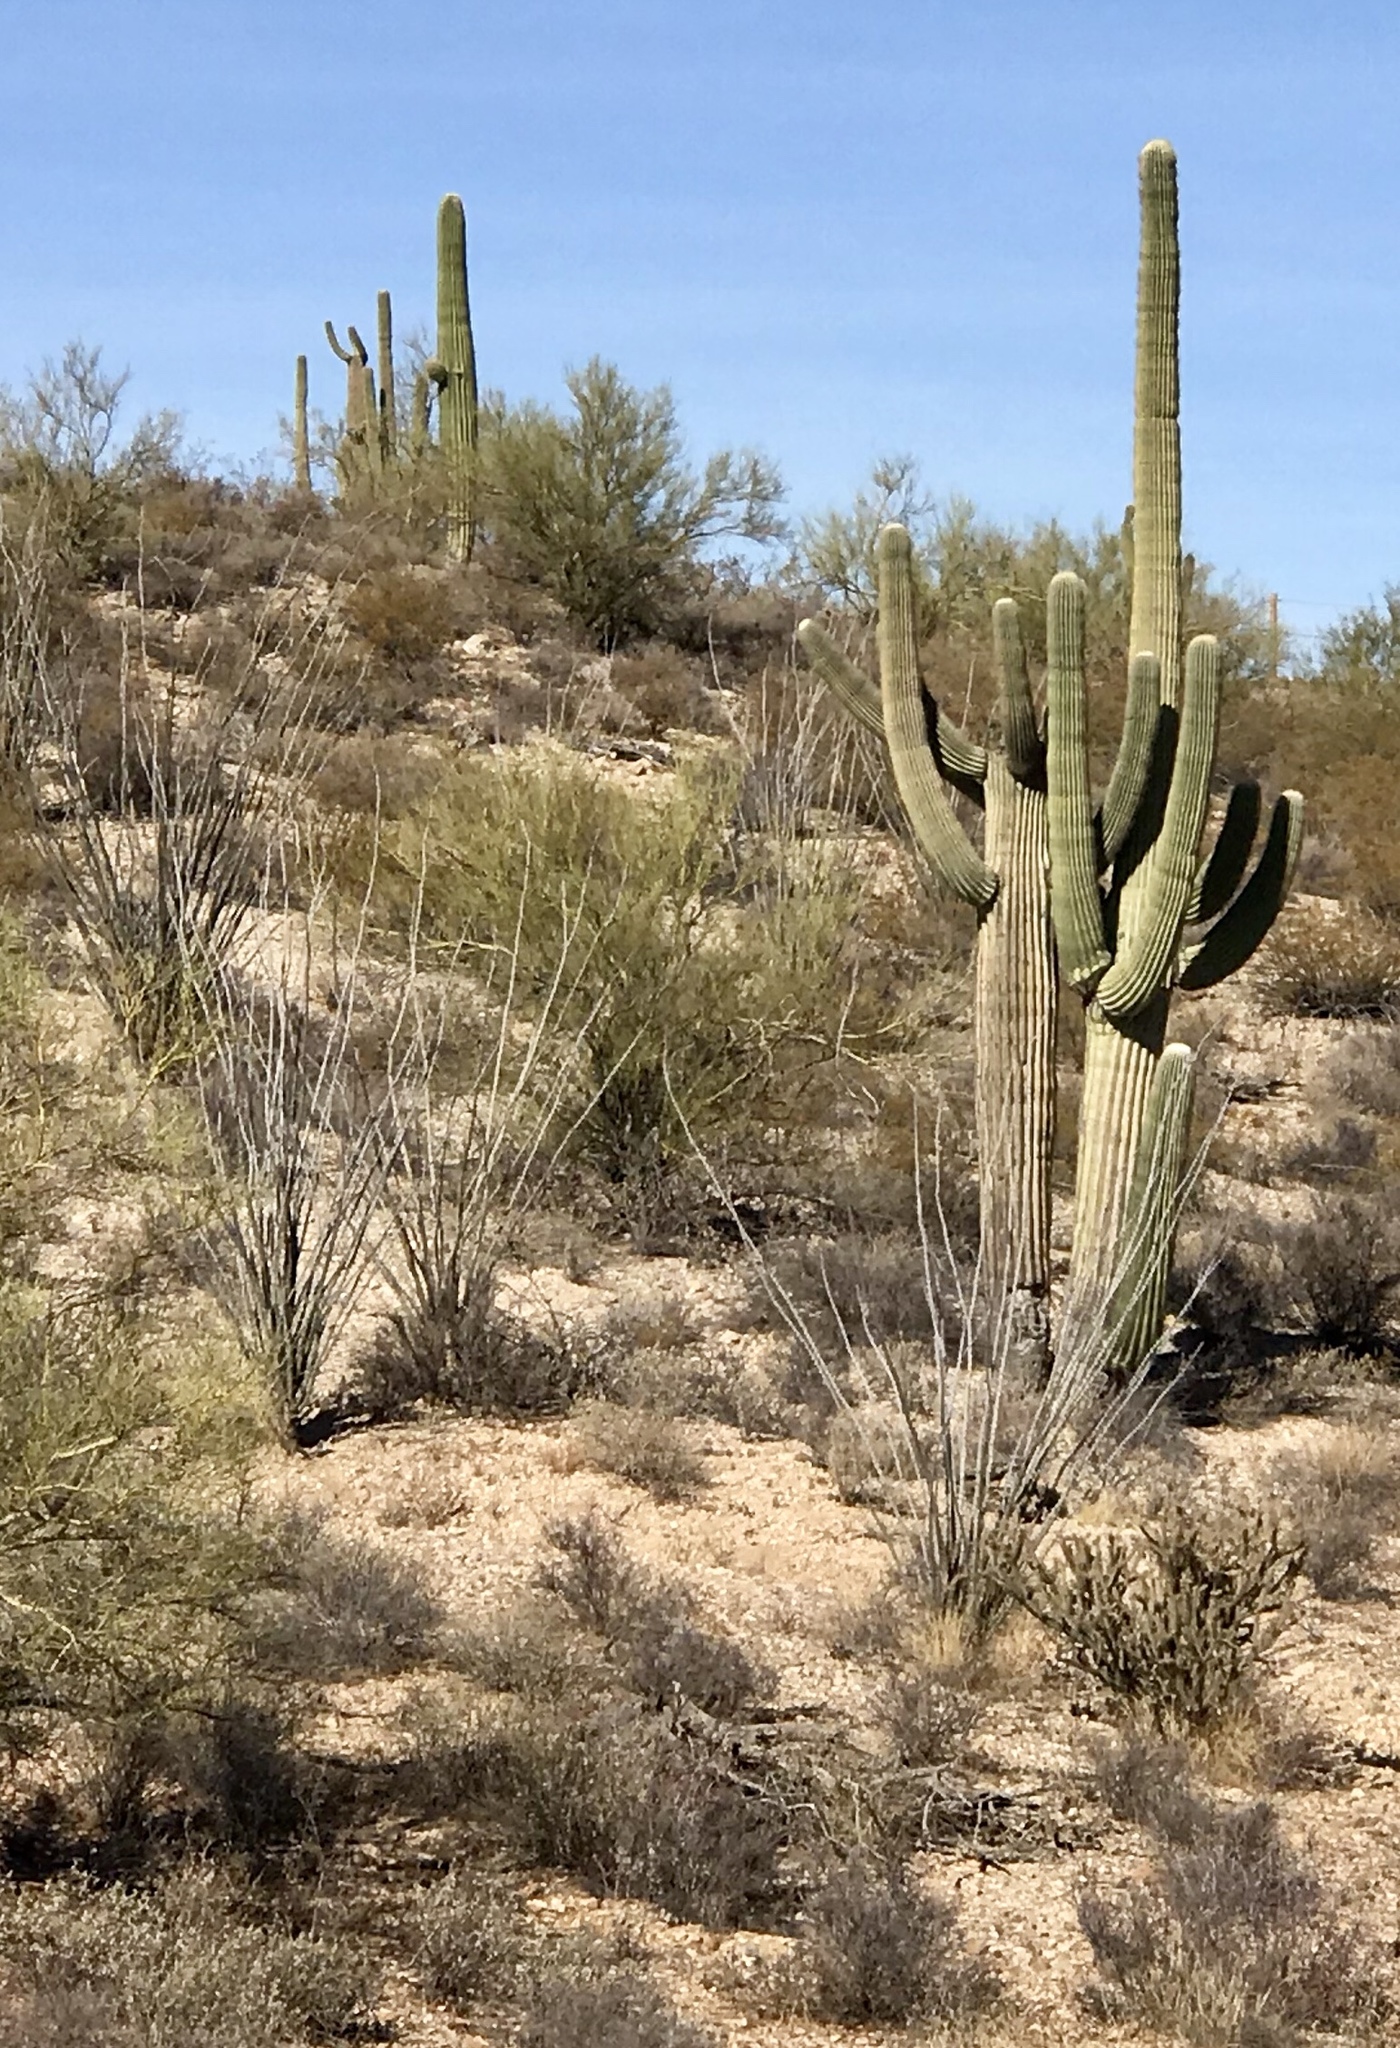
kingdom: Plantae
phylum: Tracheophyta
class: Magnoliopsida
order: Ericales
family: Fouquieriaceae
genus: Fouquieria
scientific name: Fouquieria splendens
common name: Vine-cactus
